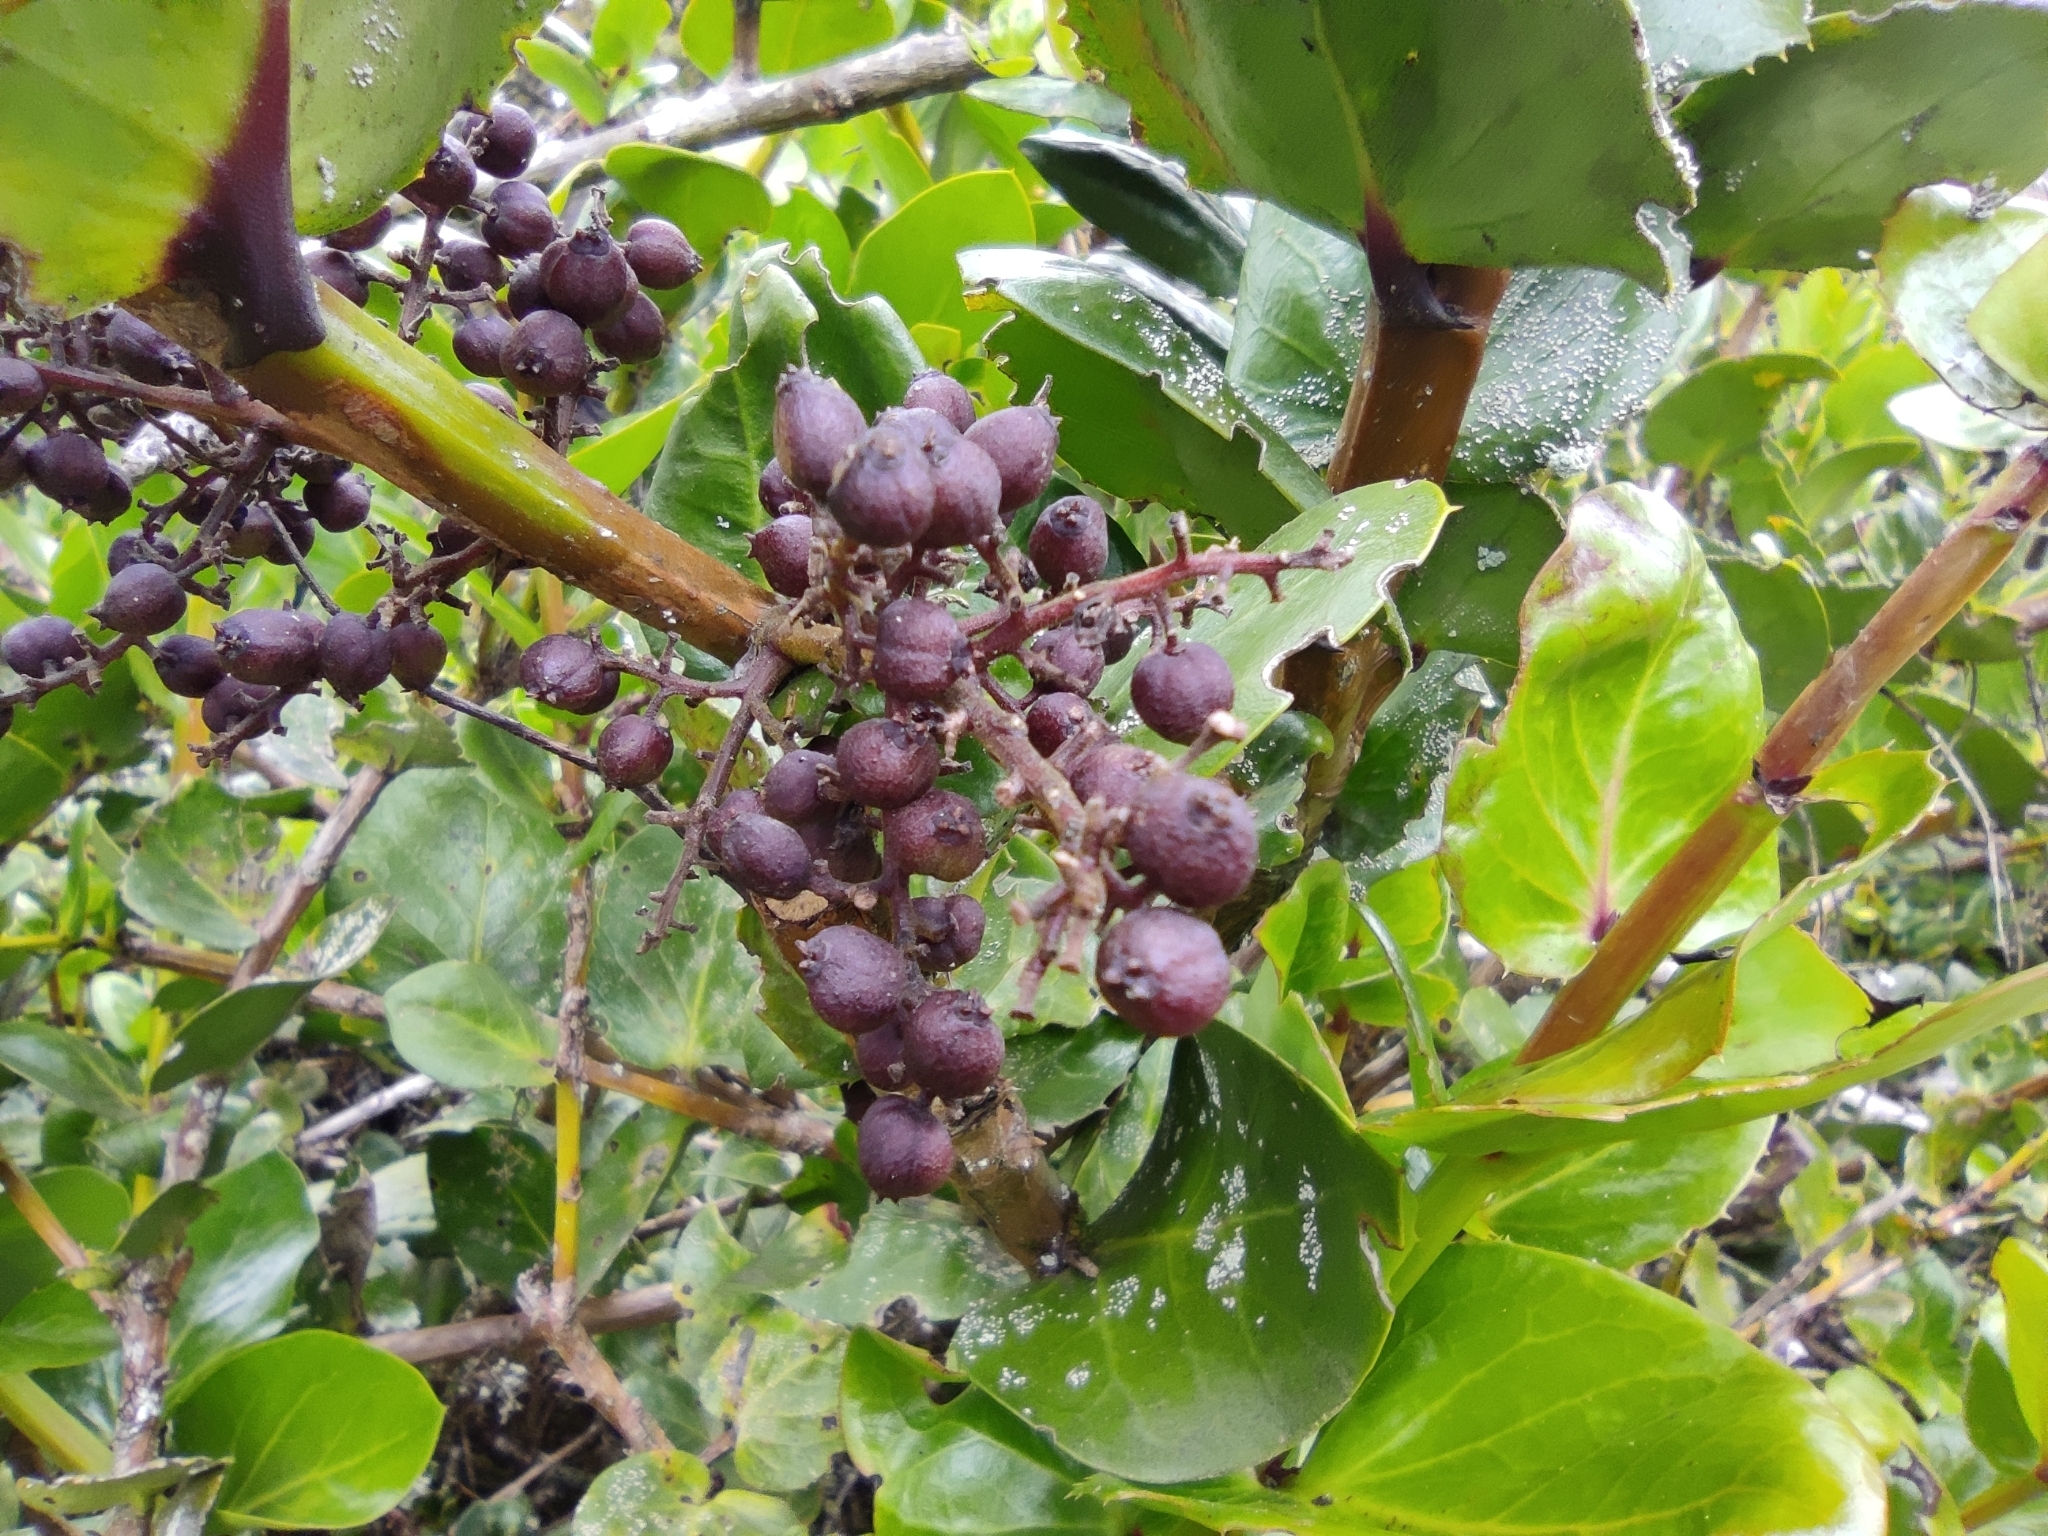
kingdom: Plantae
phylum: Tracheophyta
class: Magnoliopsida
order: Apiales
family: Griseliniaceae
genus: Griselinia
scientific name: Griselinia scandens
